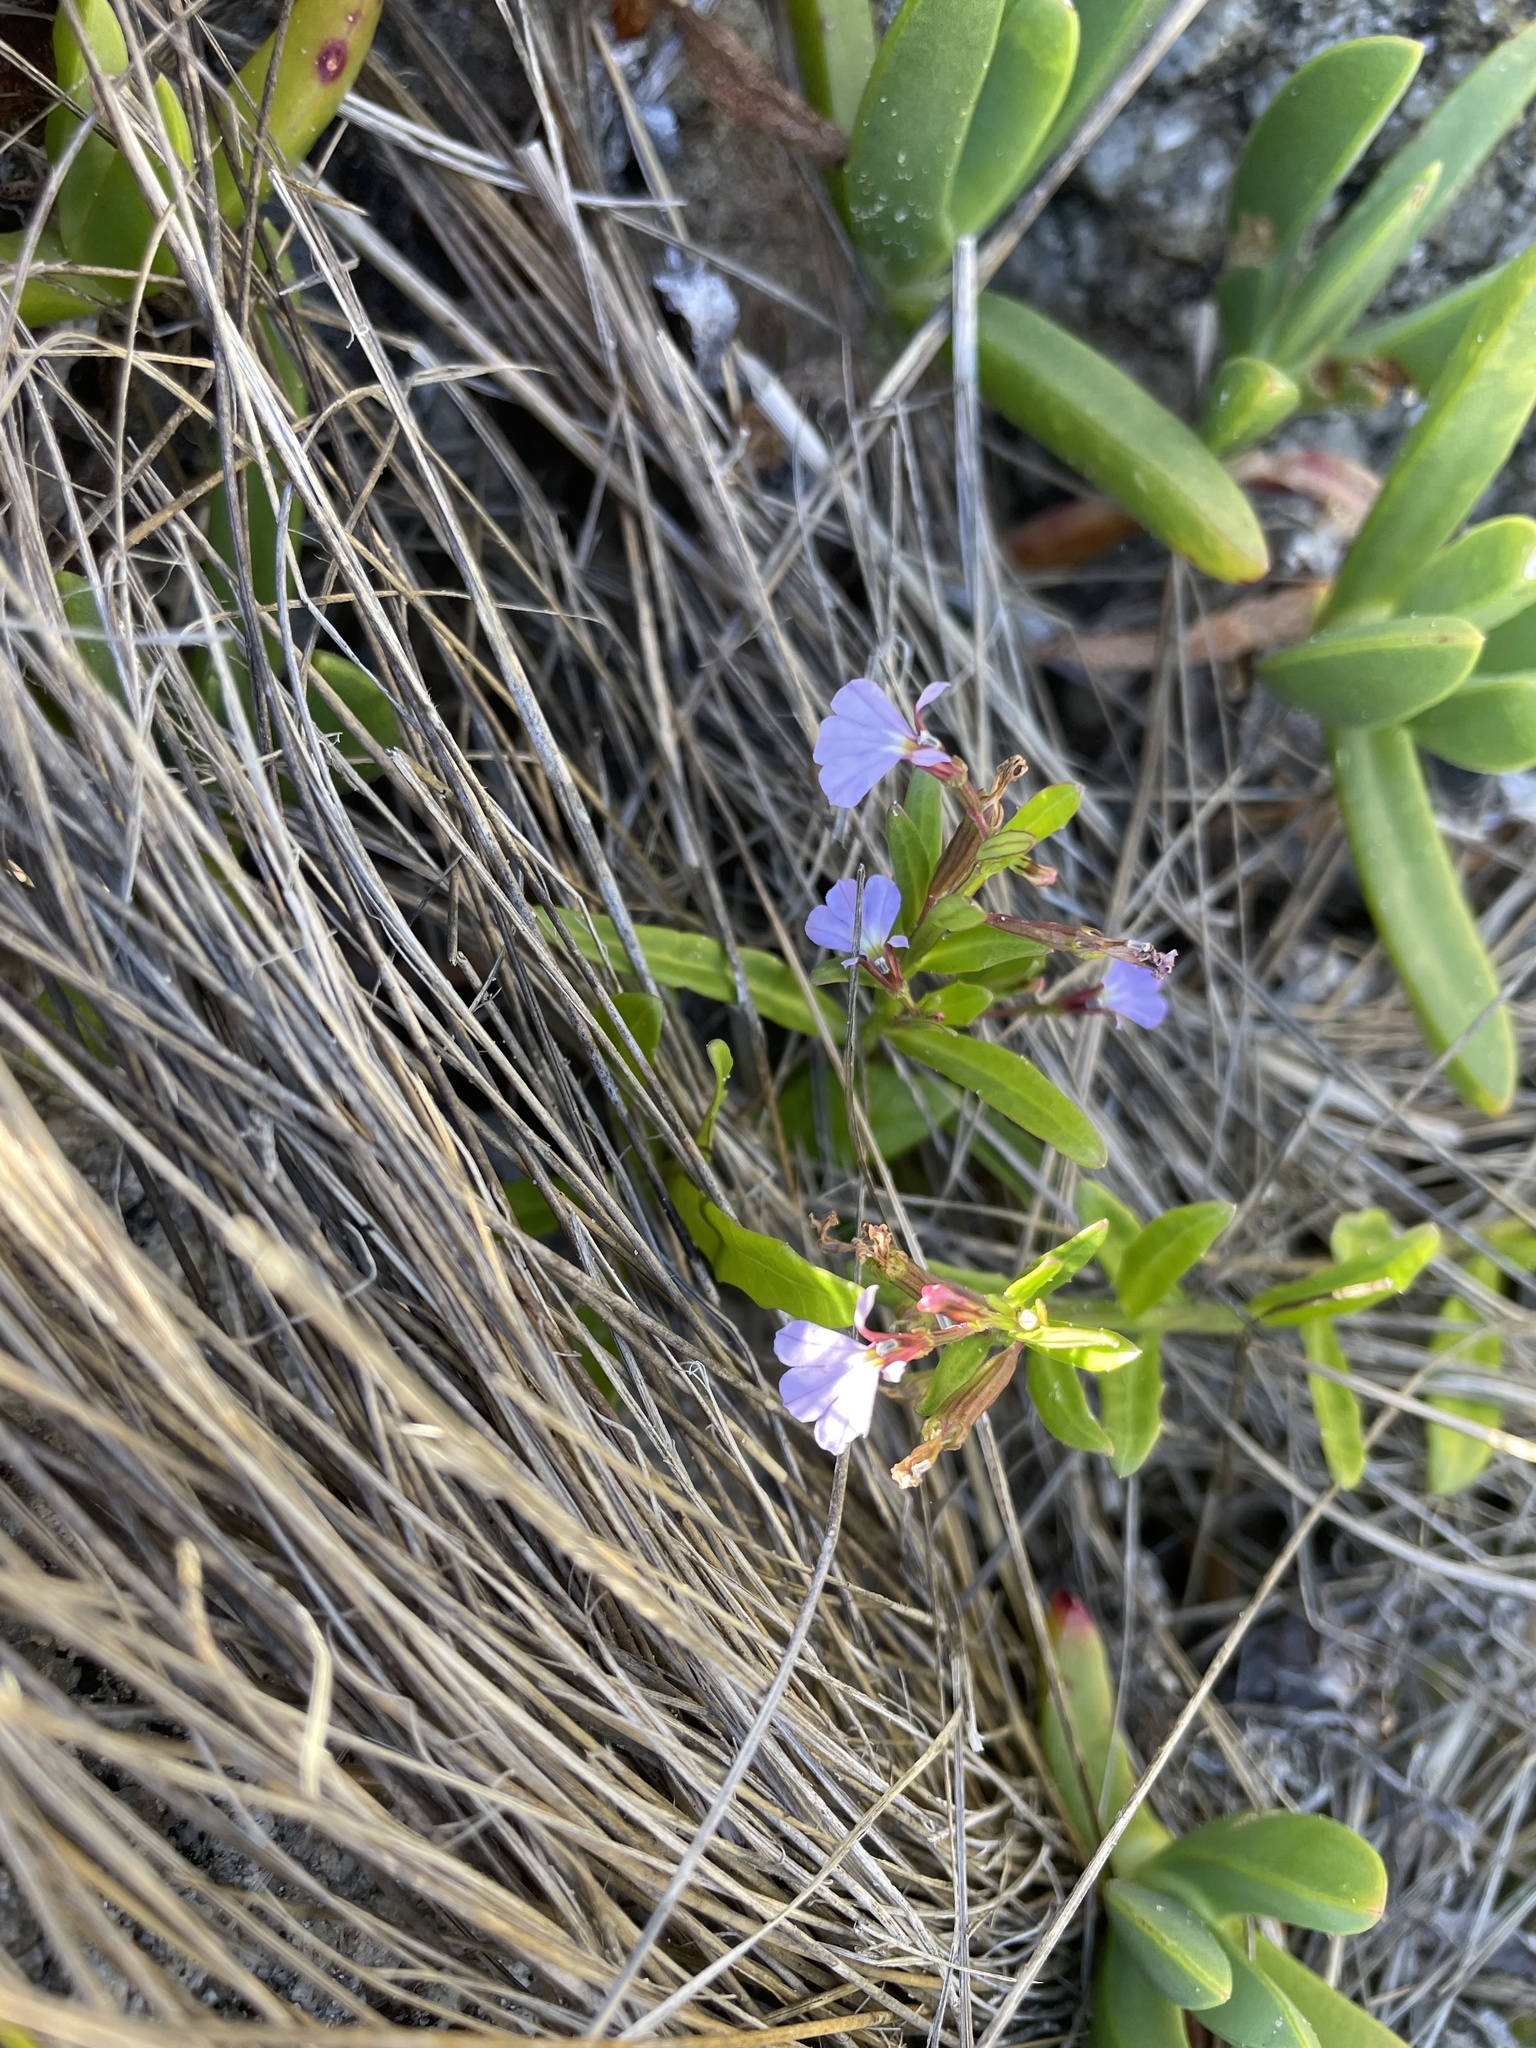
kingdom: Plantae
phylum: Tracheophyta
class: Magnoliopsida
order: Asterales
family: Campanulaceae
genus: Lobelia
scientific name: Lobelia anceps
